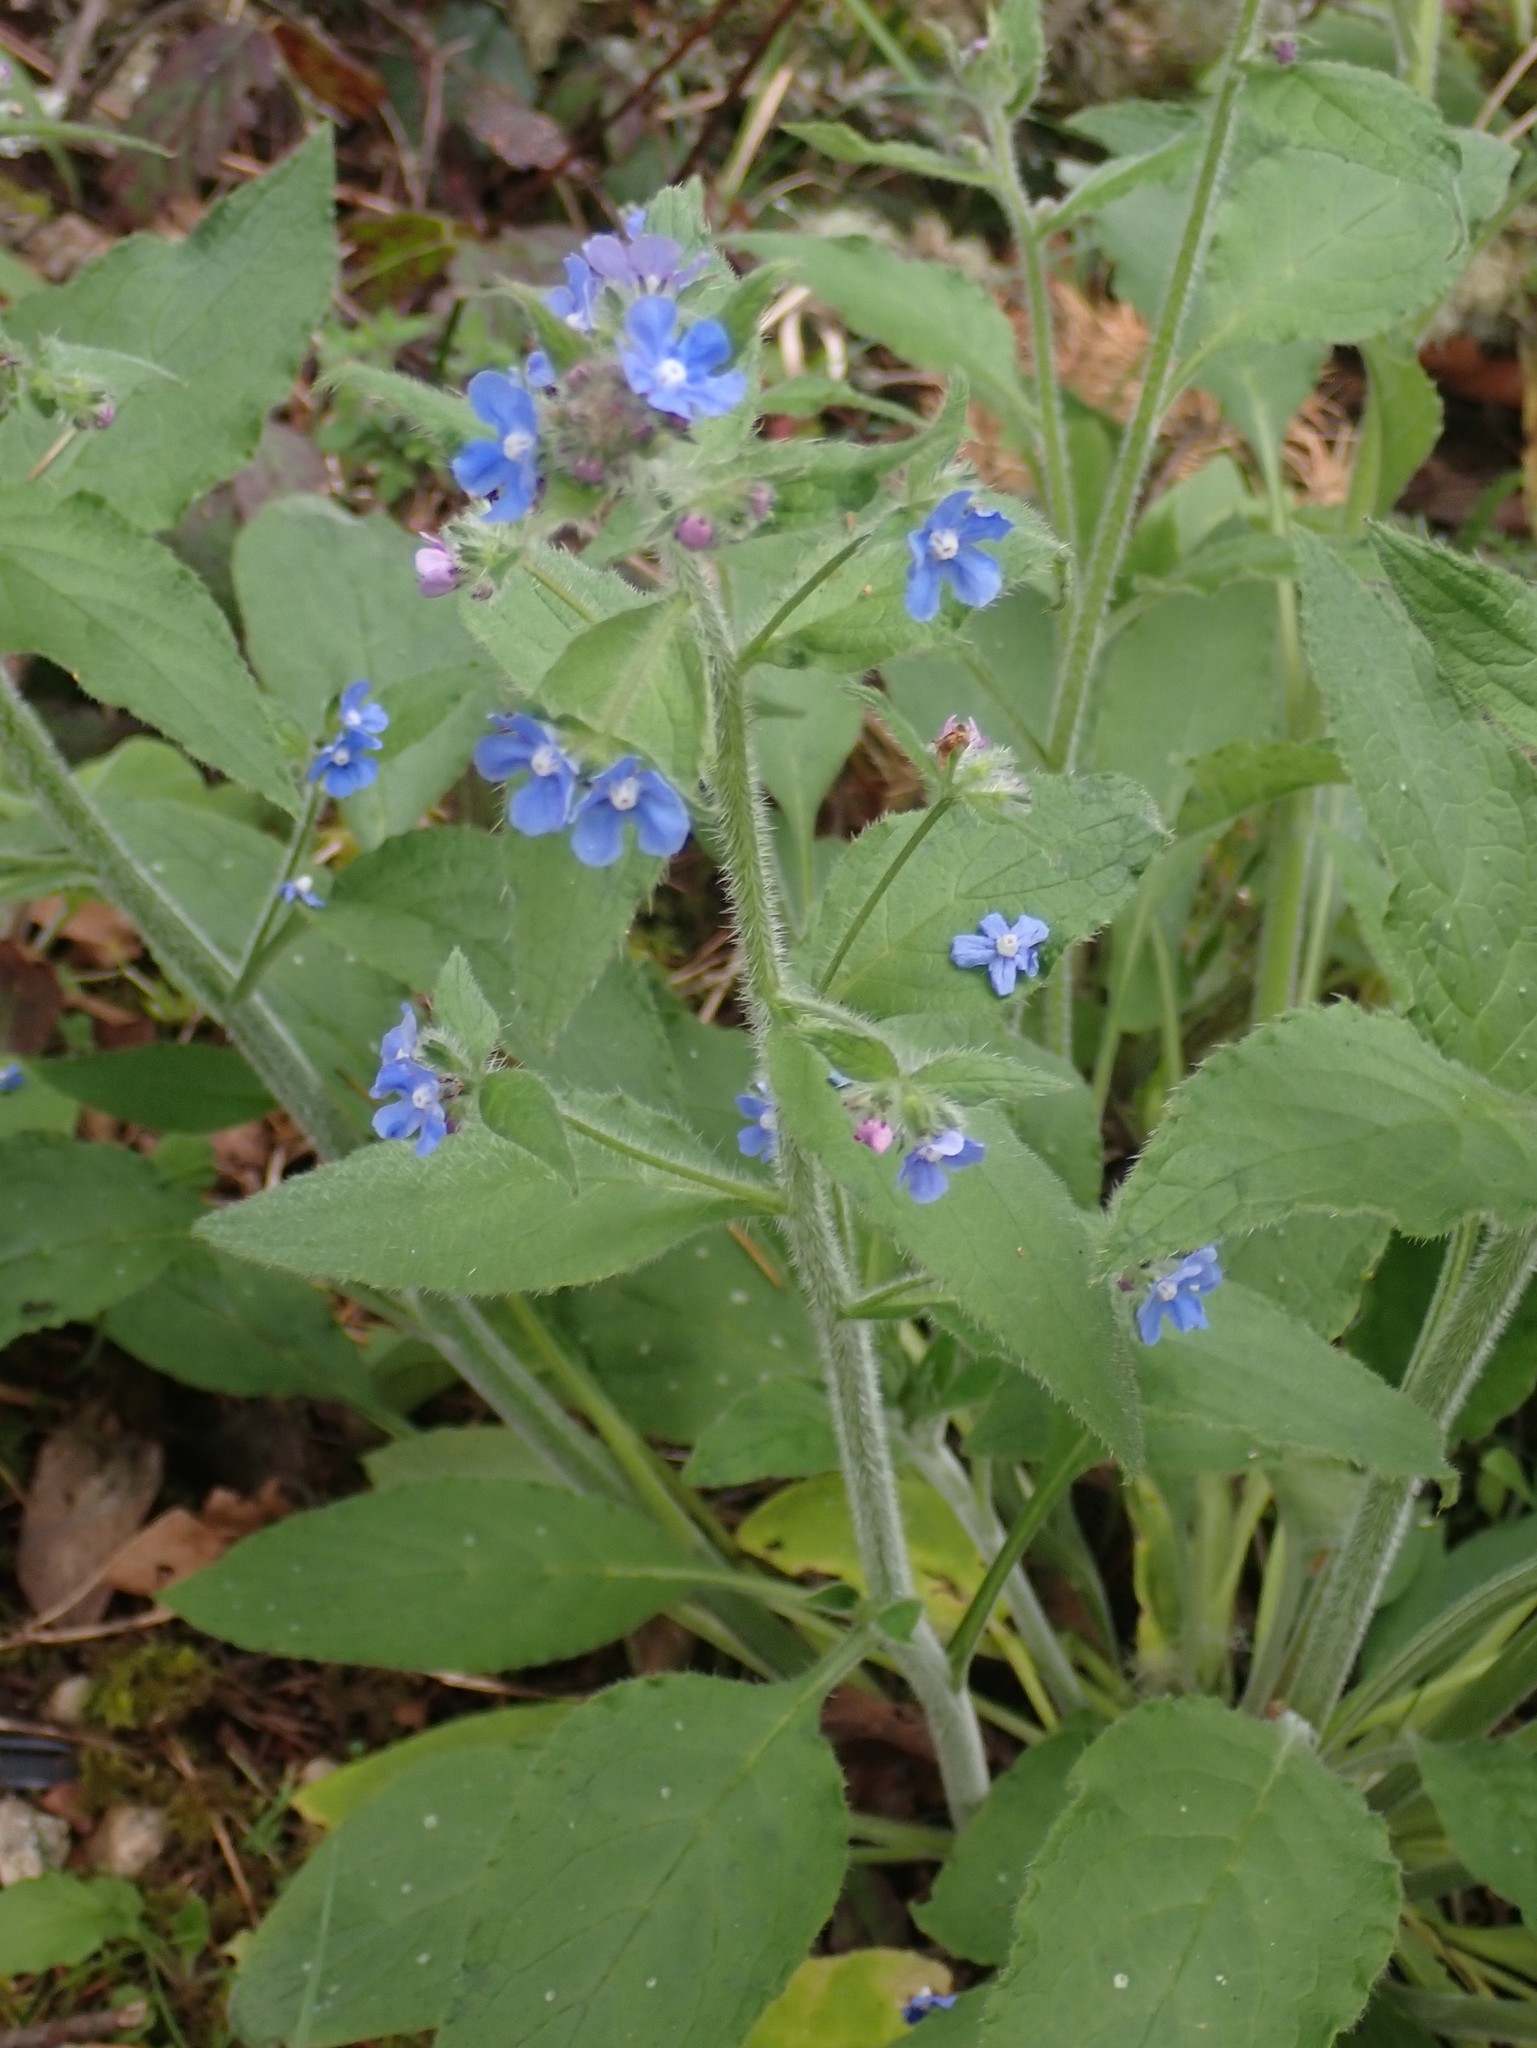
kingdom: Plantae
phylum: Tracheophyta
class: Magnoliopsida
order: Boraginales
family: Boraginaceae
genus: Pentaglottis
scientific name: Pentaglottis sempervirens
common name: Green alkanet
